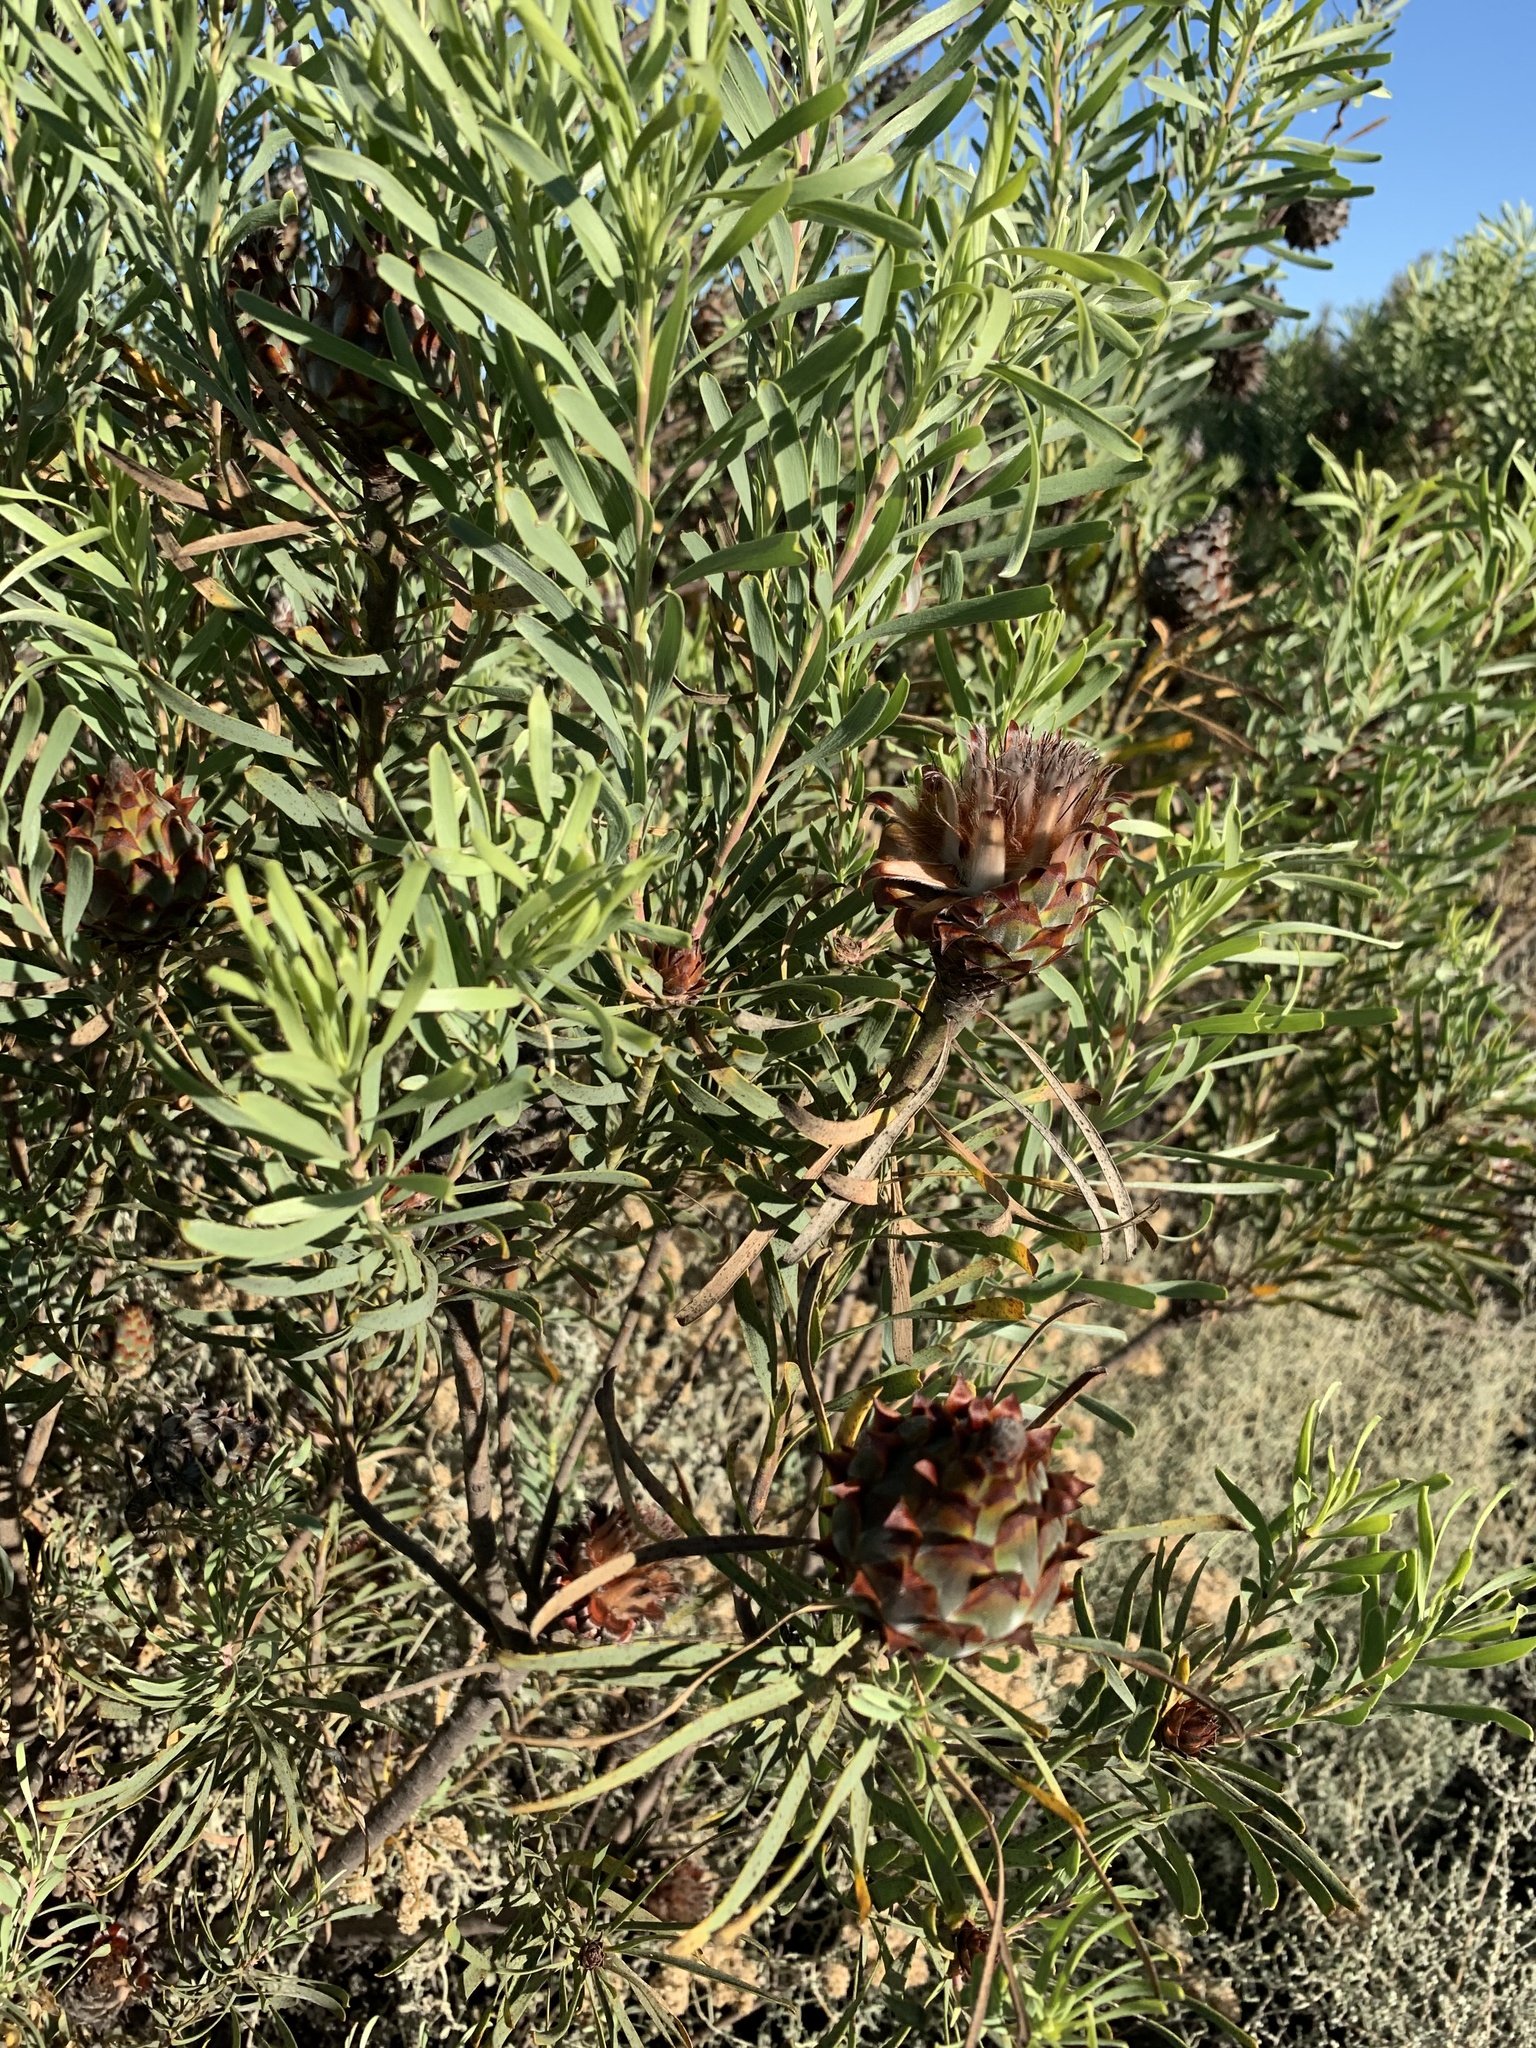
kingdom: Plantae
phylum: Tracheophyta
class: Magnoliopsida
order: Proteales
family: Proteaceae
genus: Leucadendron
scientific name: Leucadendron rubrum
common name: Spinning top
